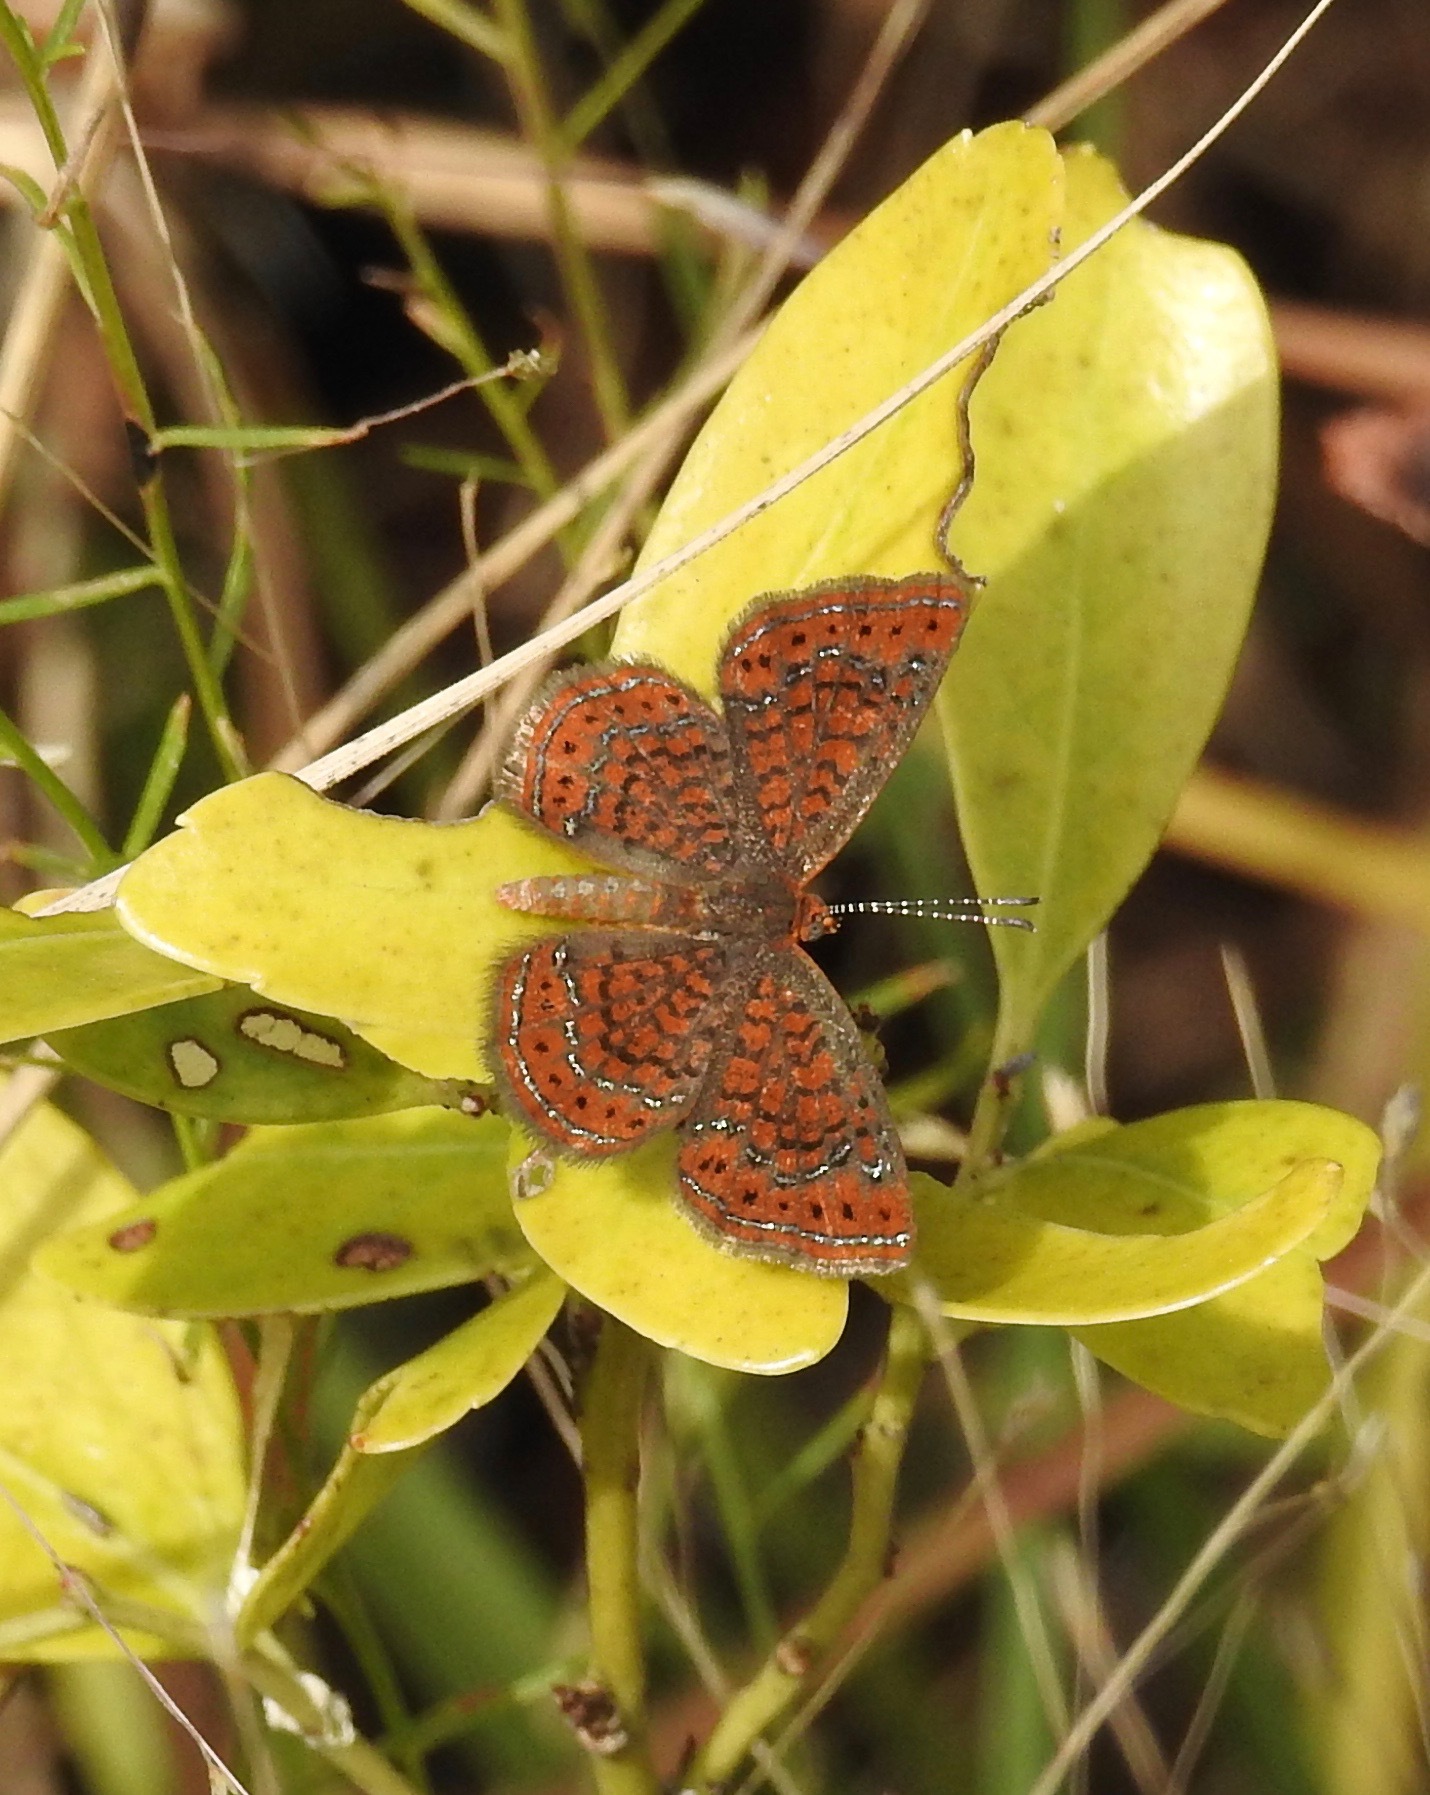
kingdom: Animalia
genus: Calephelis
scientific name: Calephelis virginiensis
